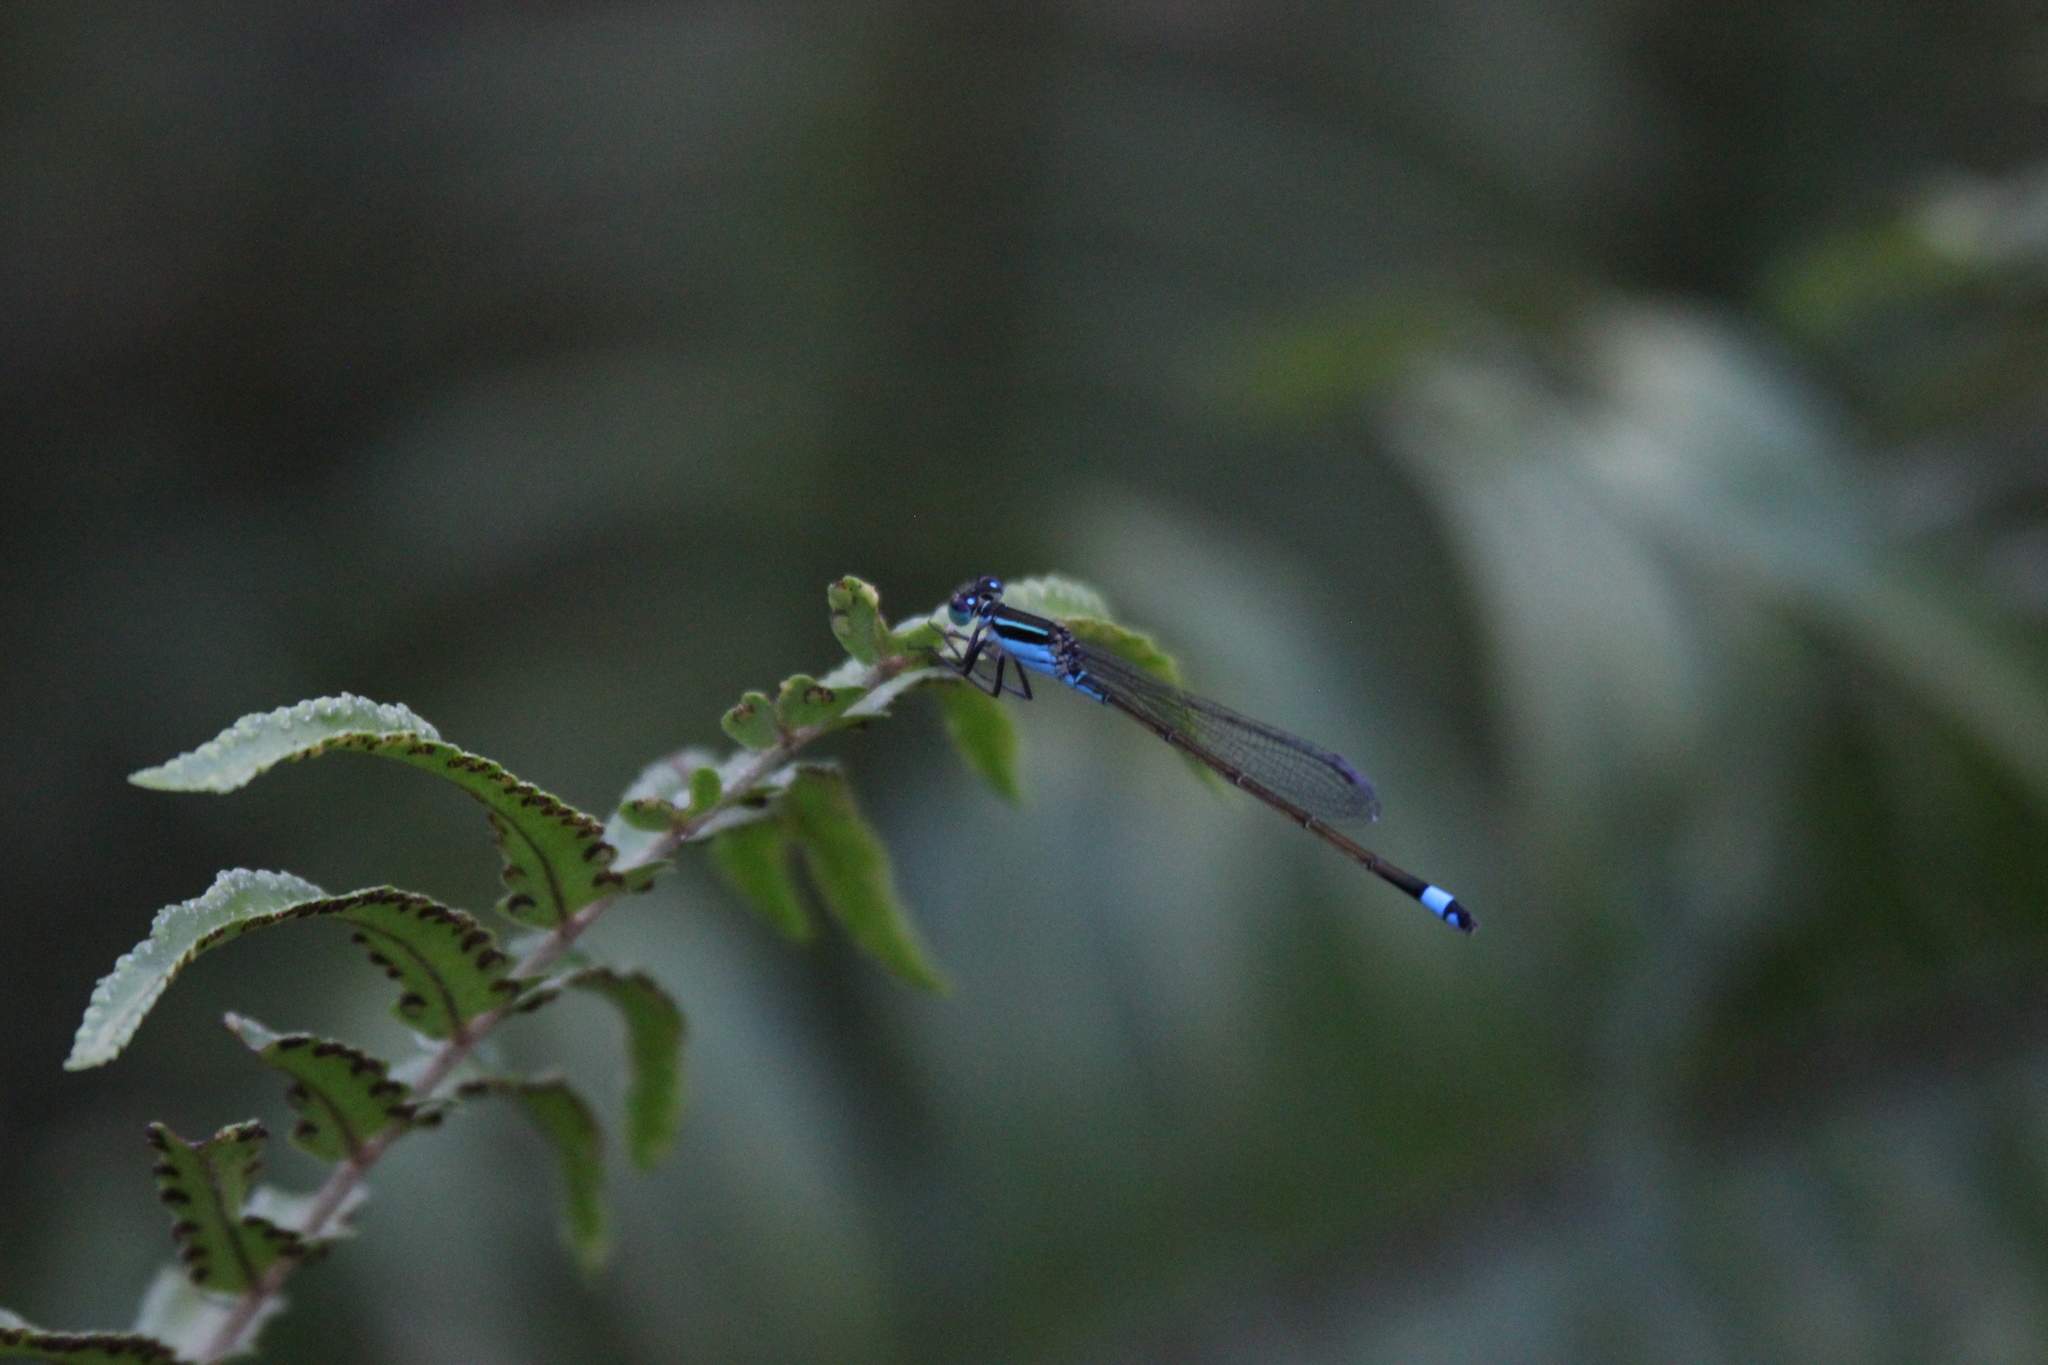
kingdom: Animalia
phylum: Arthropoda
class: Insecta
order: Odonata
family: Coenagrionidae
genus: Ischnura
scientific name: Ischnura ramburii
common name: Rambur's forktail
